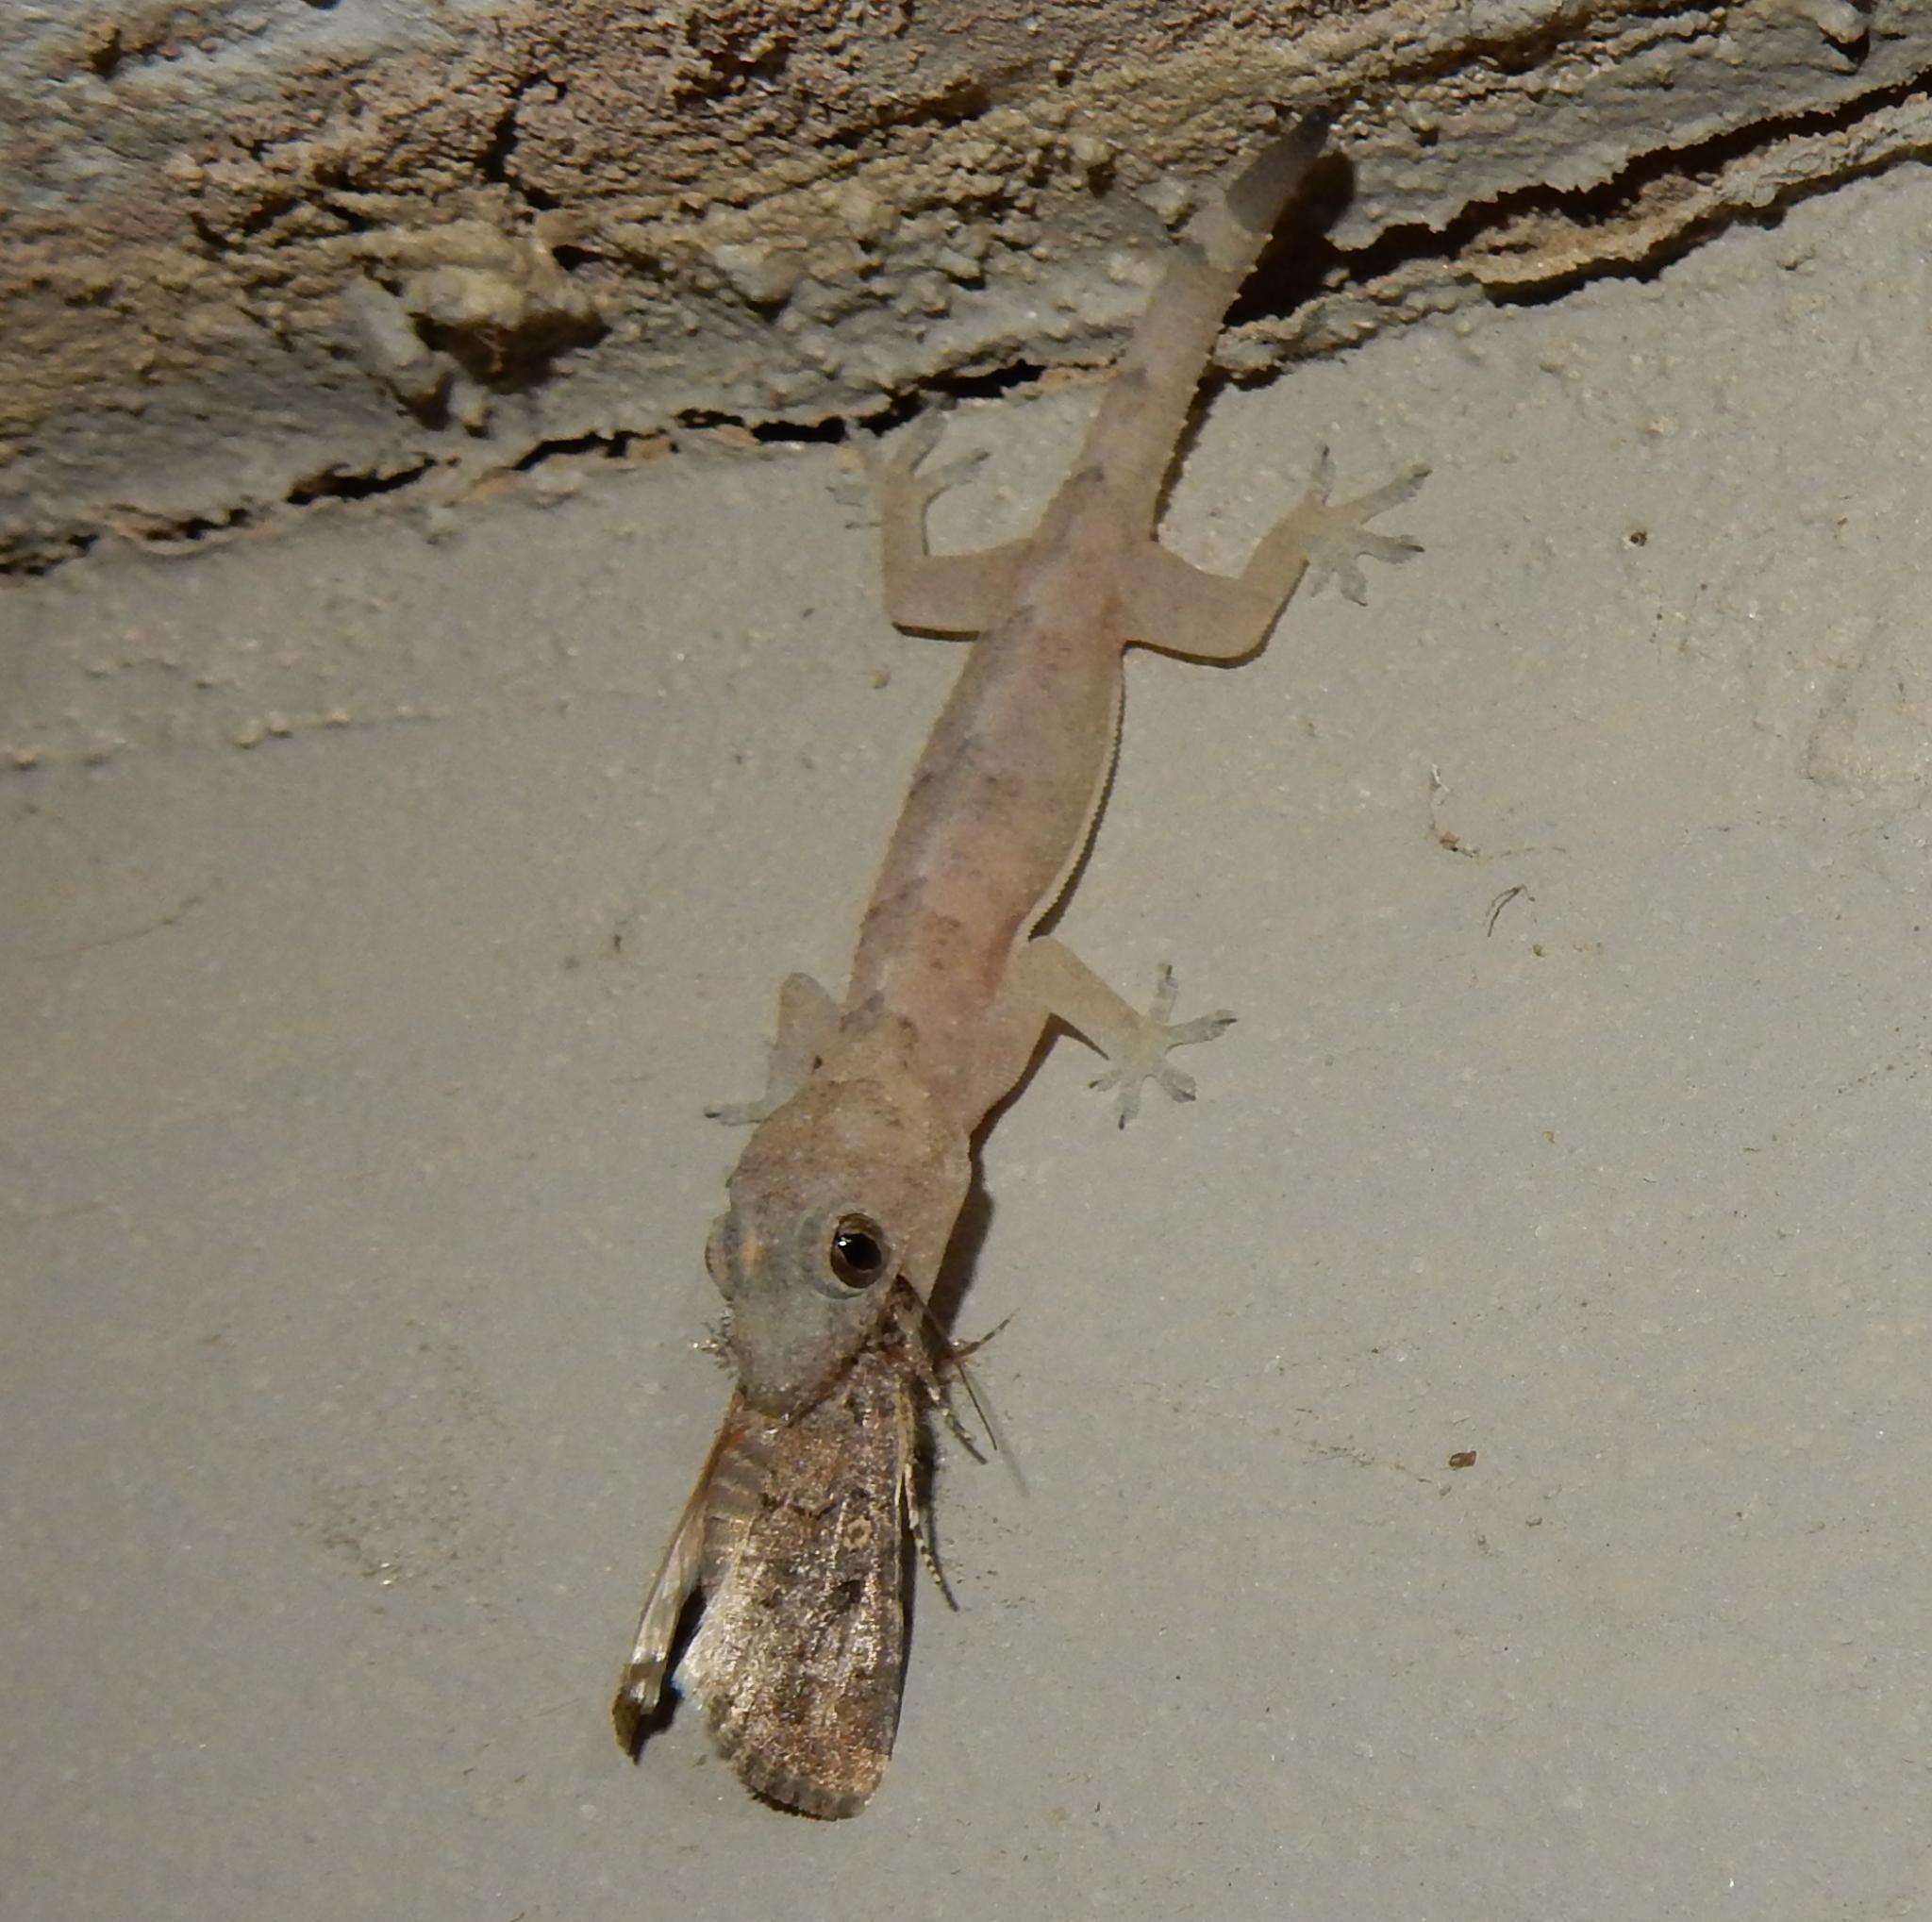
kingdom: Animalia
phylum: Chordata
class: Squamata
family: Gekkonidae
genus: Hemidactylus
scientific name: Hemidactylus mabouia
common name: House gecko
